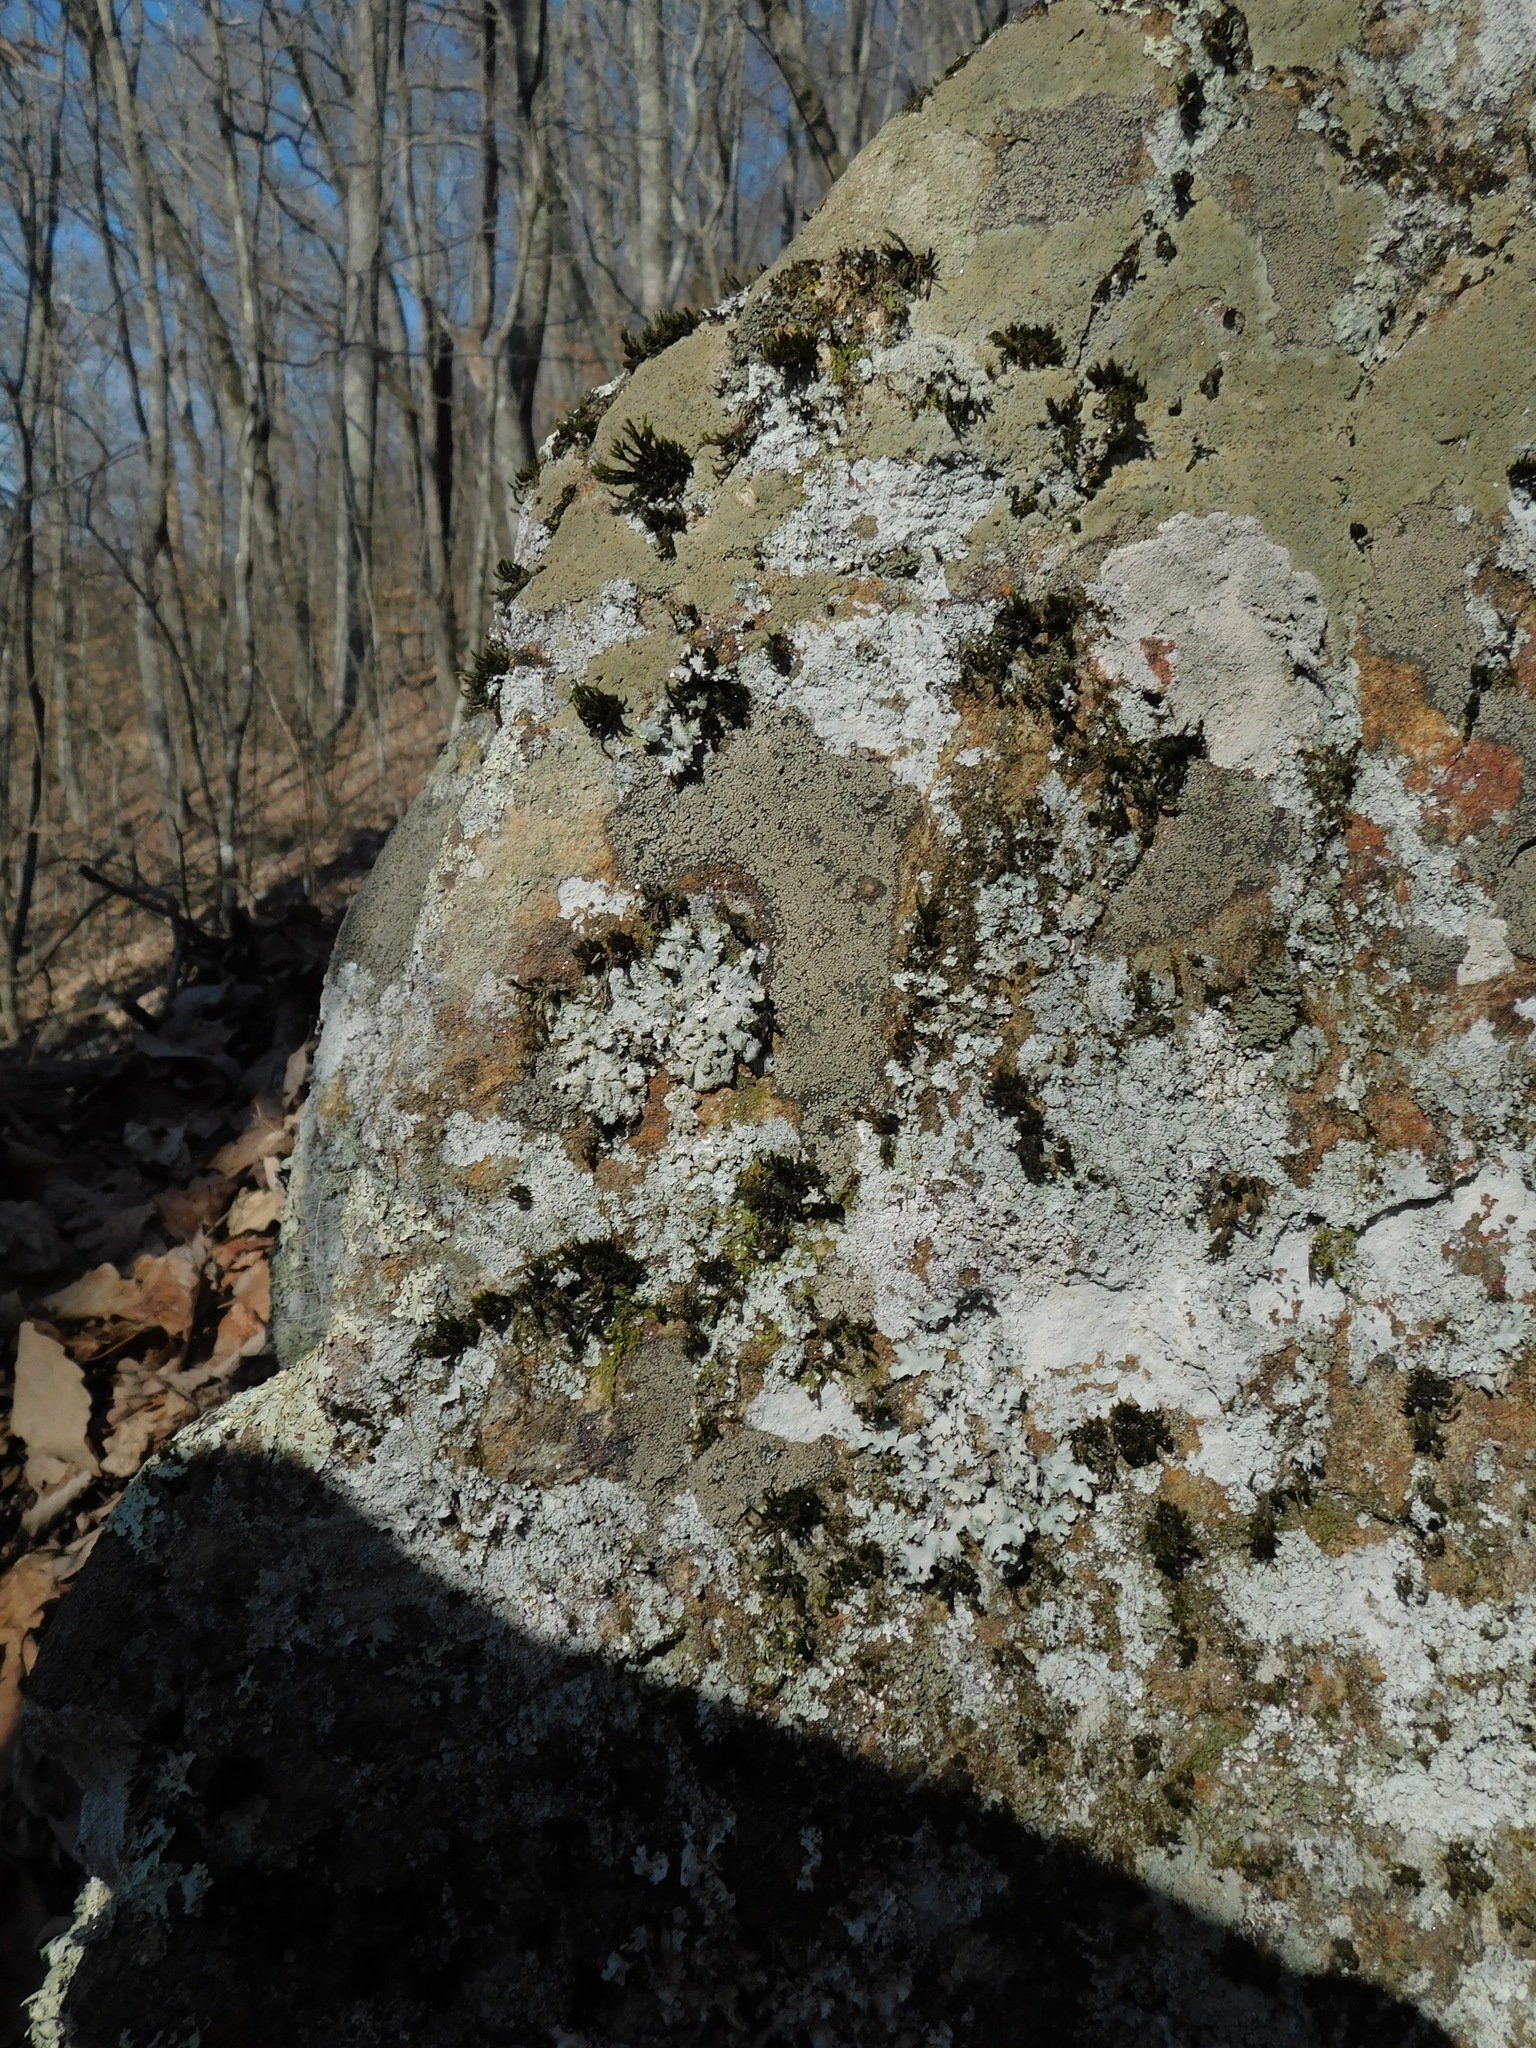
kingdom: Fungi
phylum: Ascomycota
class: Lecanoromycetes
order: Rhizocarpales
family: Rhizocarpaceae
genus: Rhizocarpon
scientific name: Rhizocarpon grande
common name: Big map lichen
